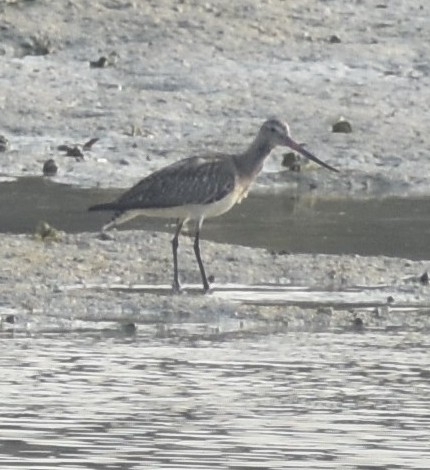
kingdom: Animalia
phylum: Chordata
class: Aves
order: Charadriiformes
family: Scolopacidae
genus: Limosa
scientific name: Limosa lapponica
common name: Bar-tailed godwit
